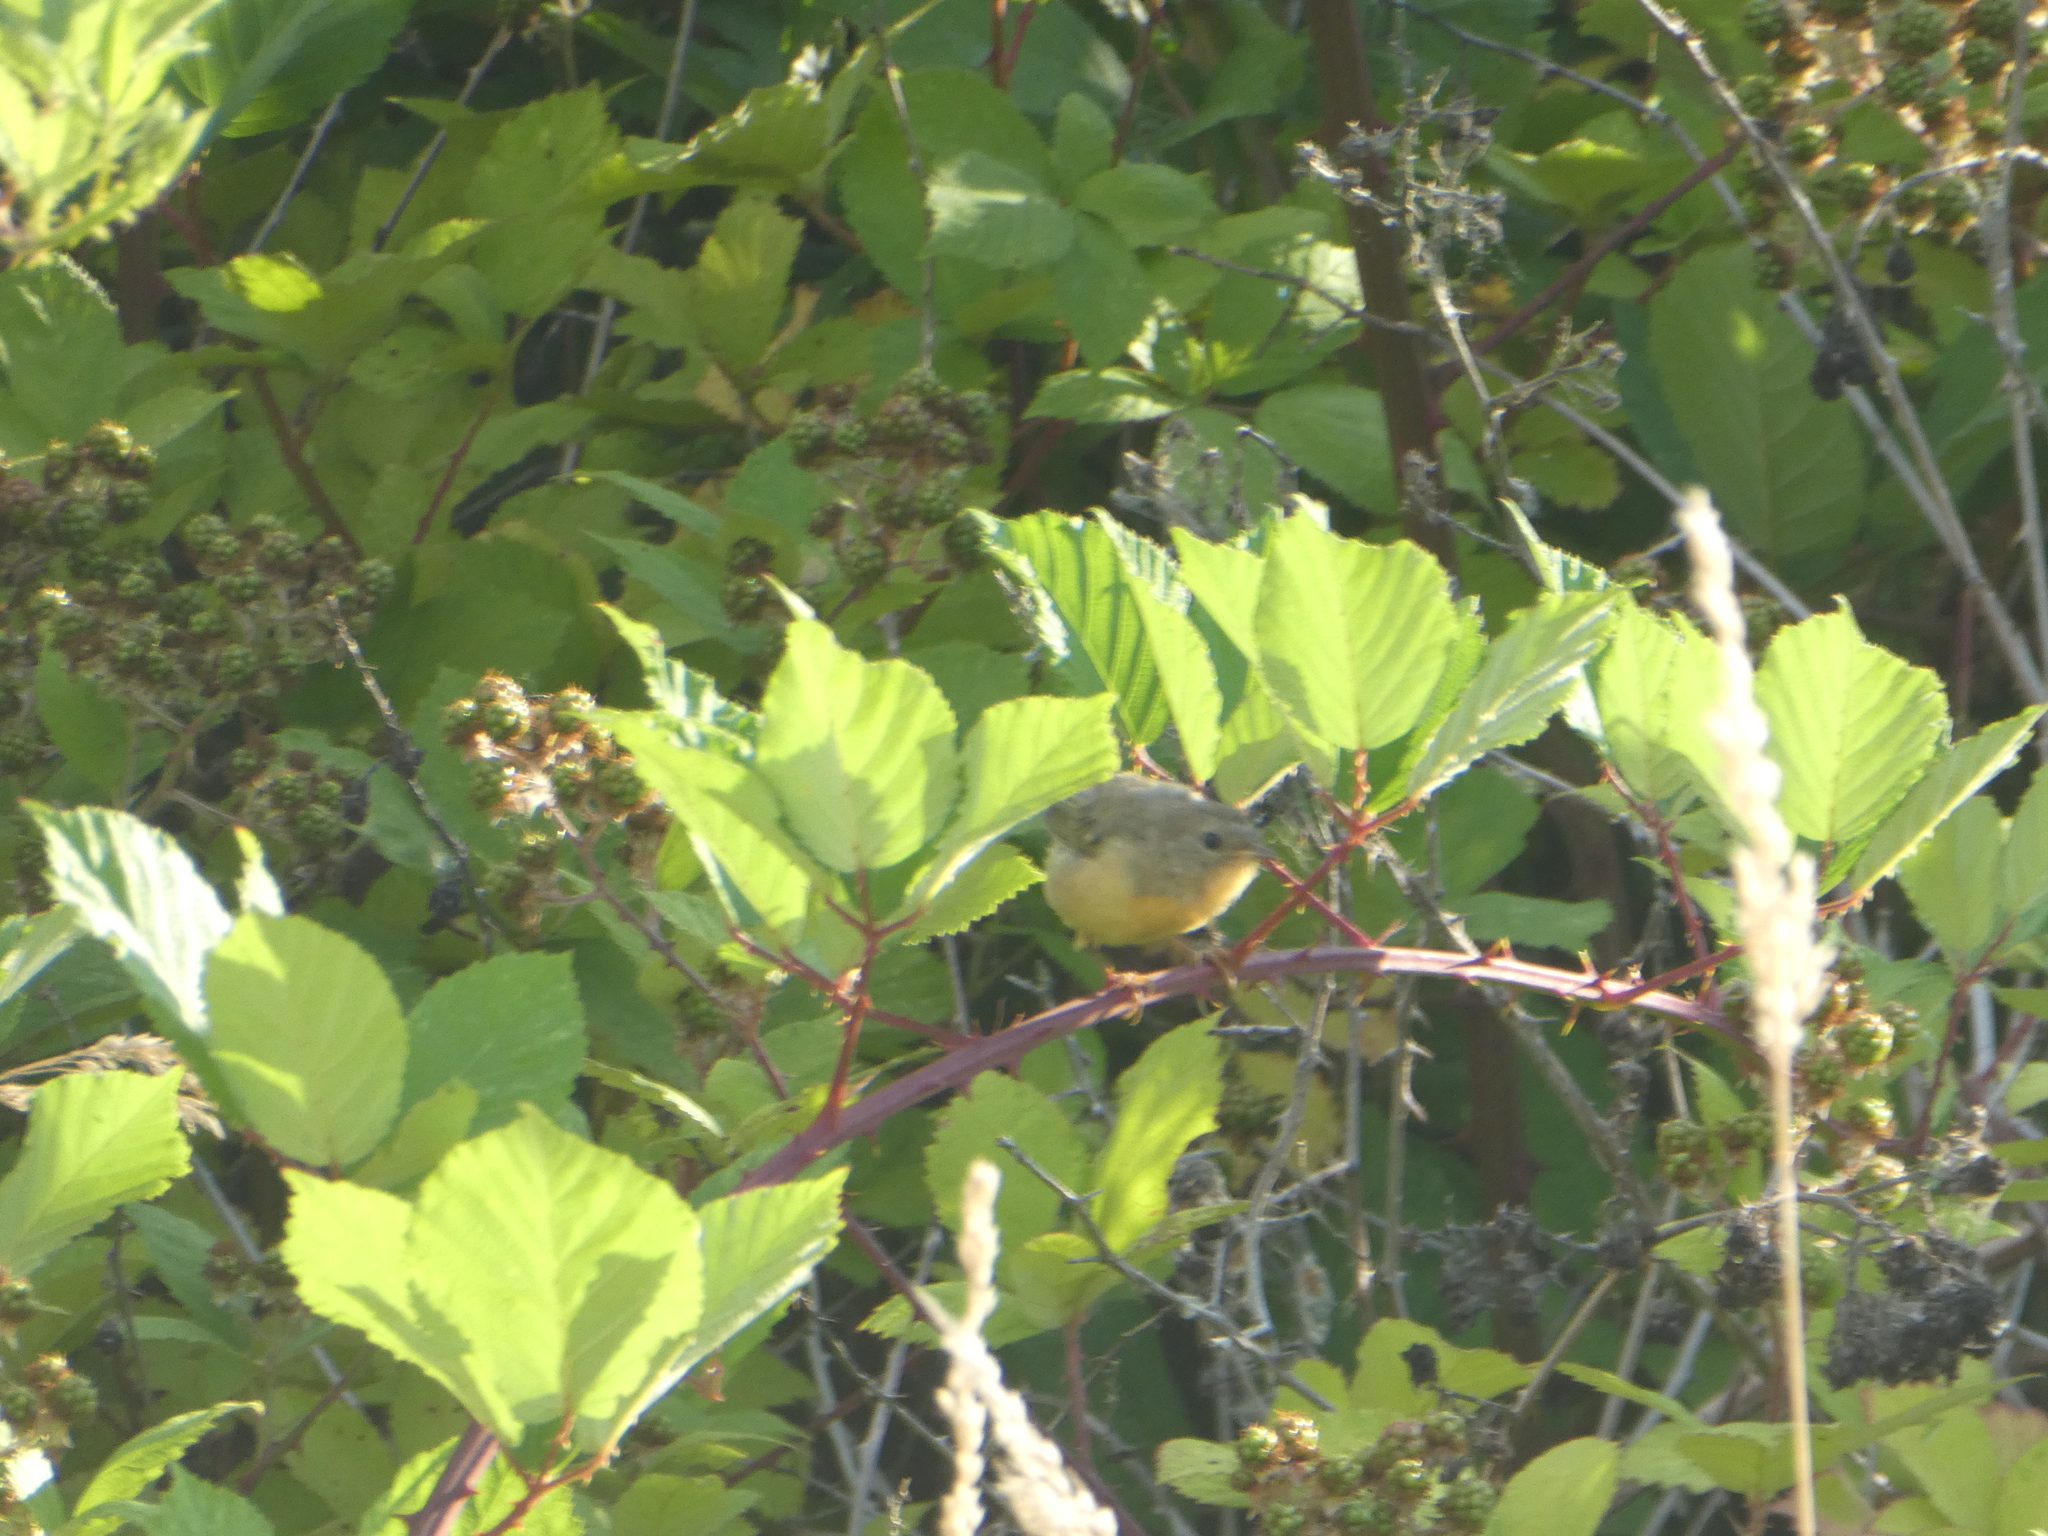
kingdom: Animalia
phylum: Chordata
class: Aves
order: Passeriformes
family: Parulidae
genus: Geothlypis
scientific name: Geothlypis trichas
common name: Common yellowthroat
